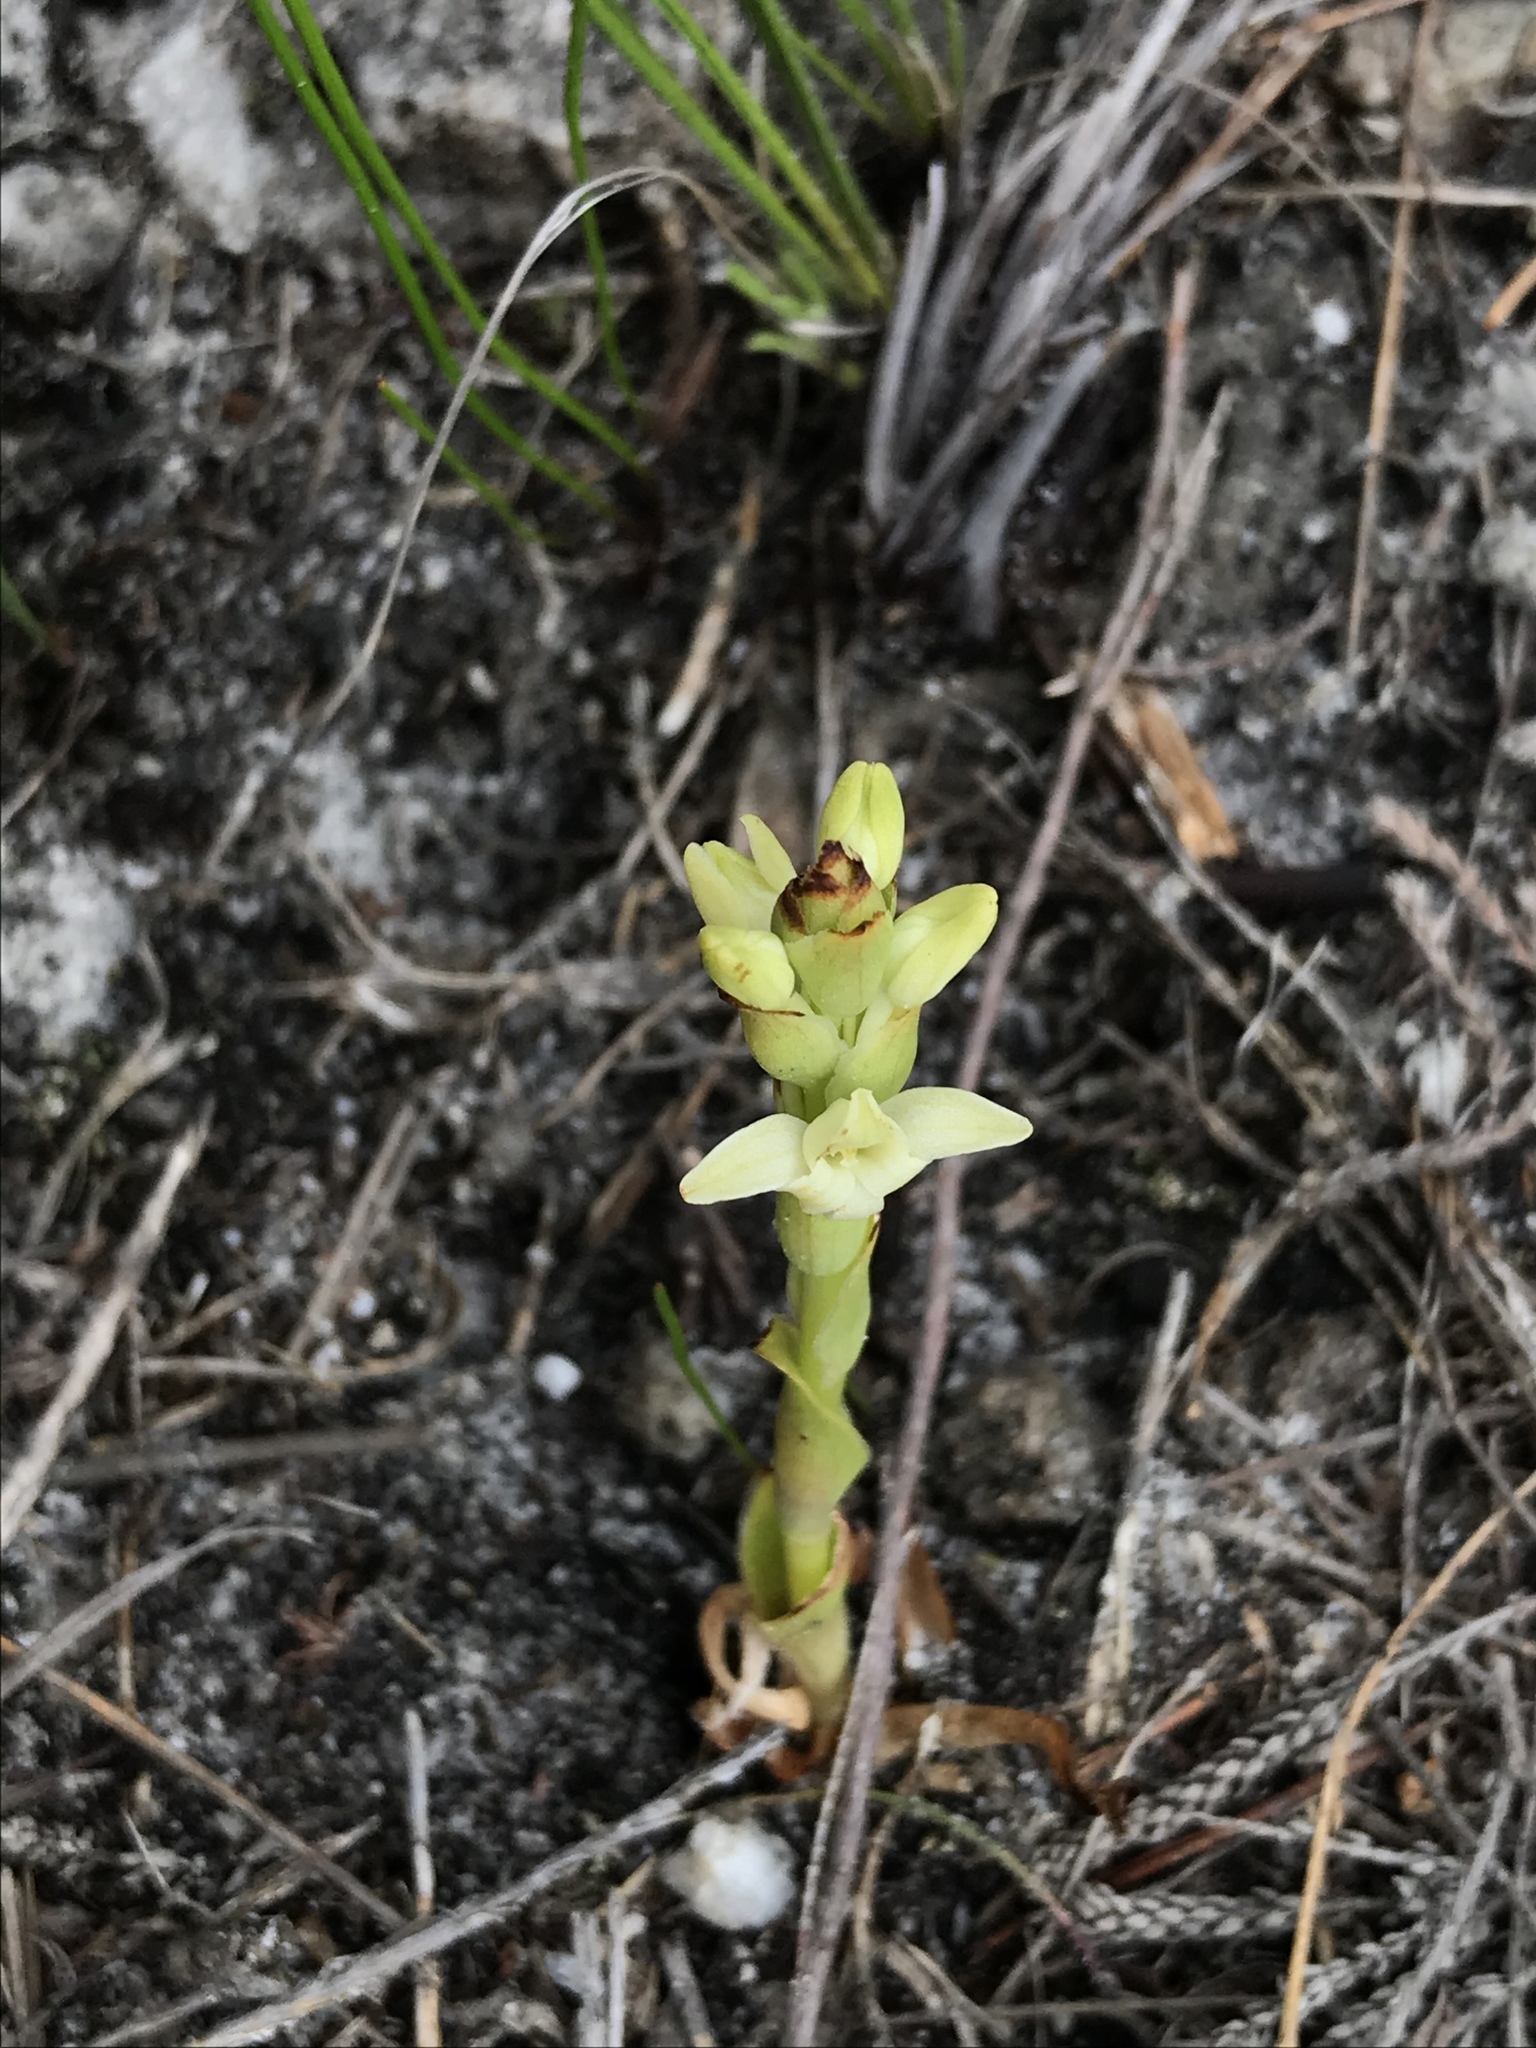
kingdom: Plantae
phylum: Tracheophyta
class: Liliopsida
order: Asparagales
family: Orchidaceae
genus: Satyrium
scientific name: Satyrium humile
